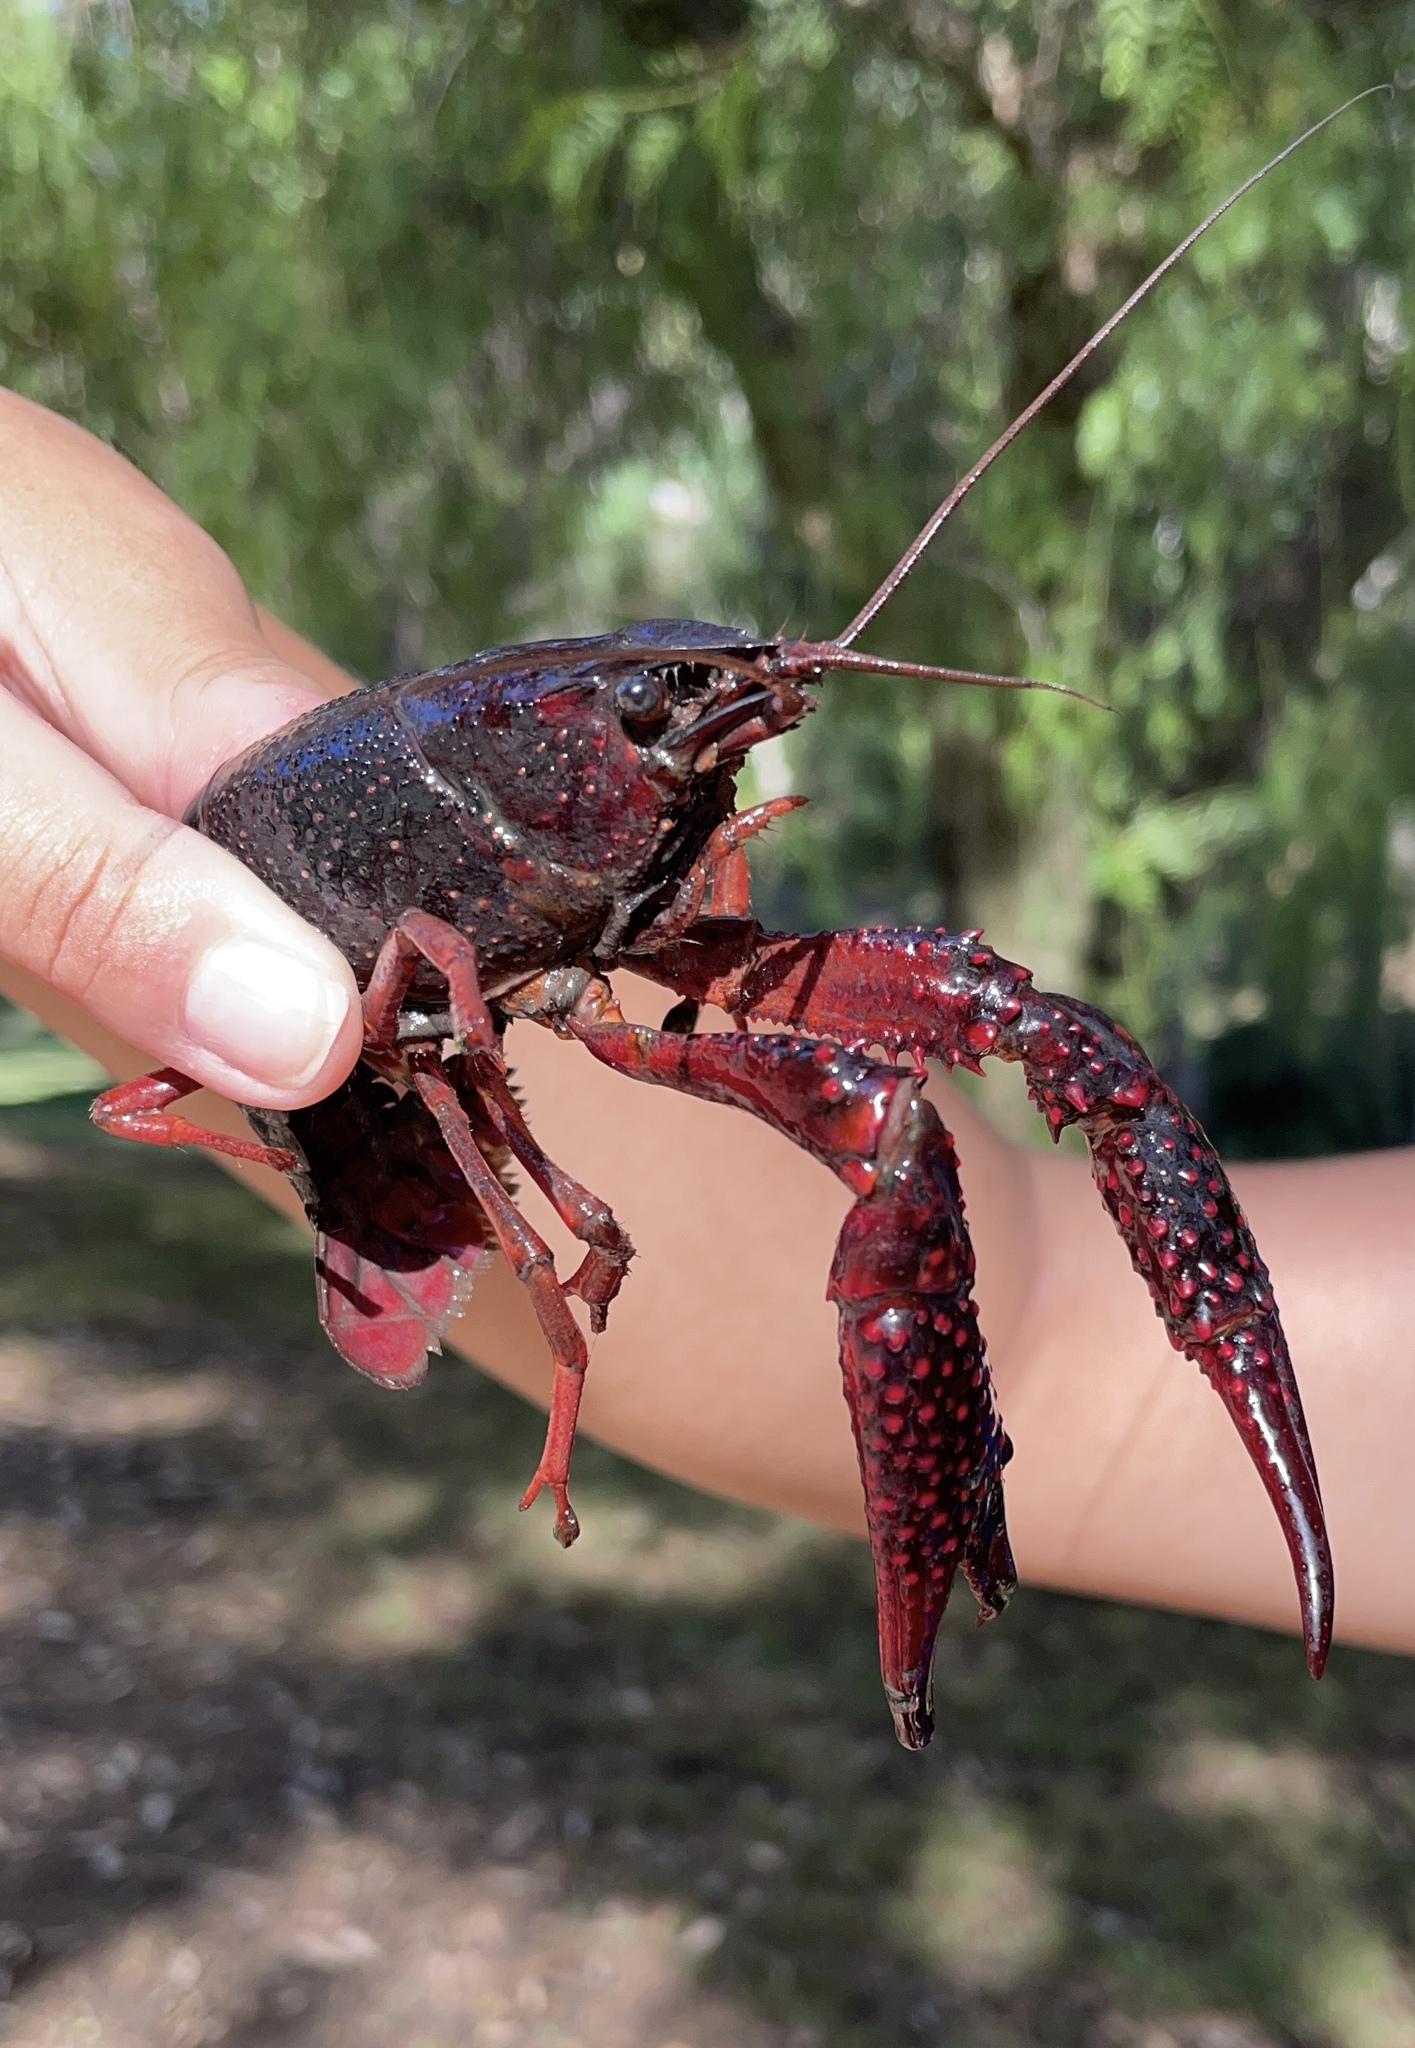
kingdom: Animalia
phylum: Arthropoda
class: Malacostraca
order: Decapoda
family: Cambaridae
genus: Procambarus
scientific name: Procambarus clarkii
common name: Red swamp crayfish
